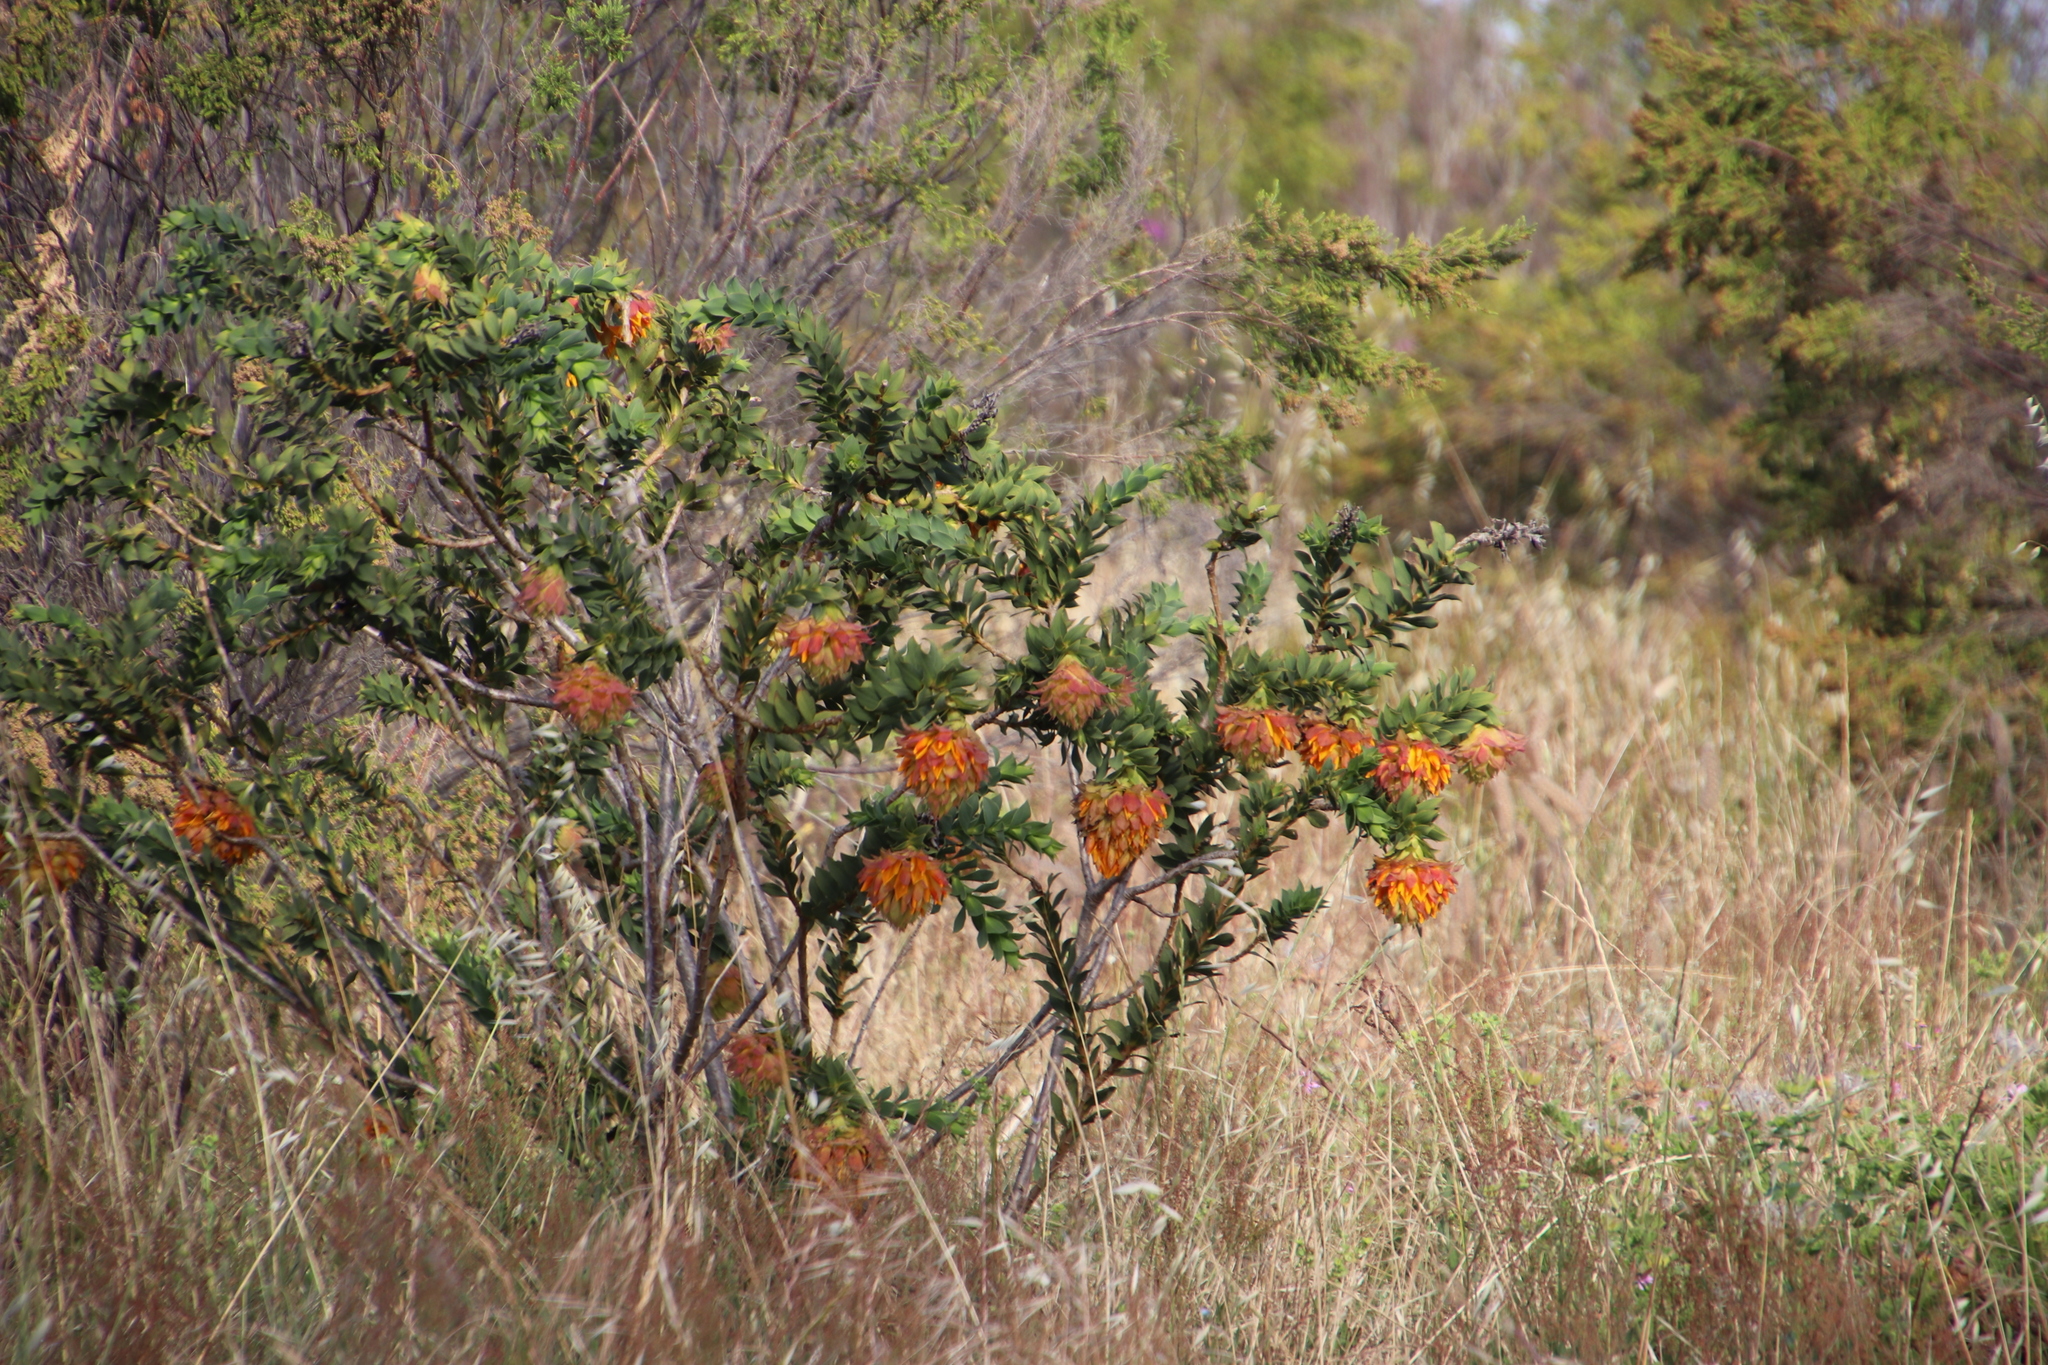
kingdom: Plantae
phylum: Tracheophyta
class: Magnoliopsida
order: Fabales
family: Fabaceae
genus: Liparia
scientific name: Liparia splendens
